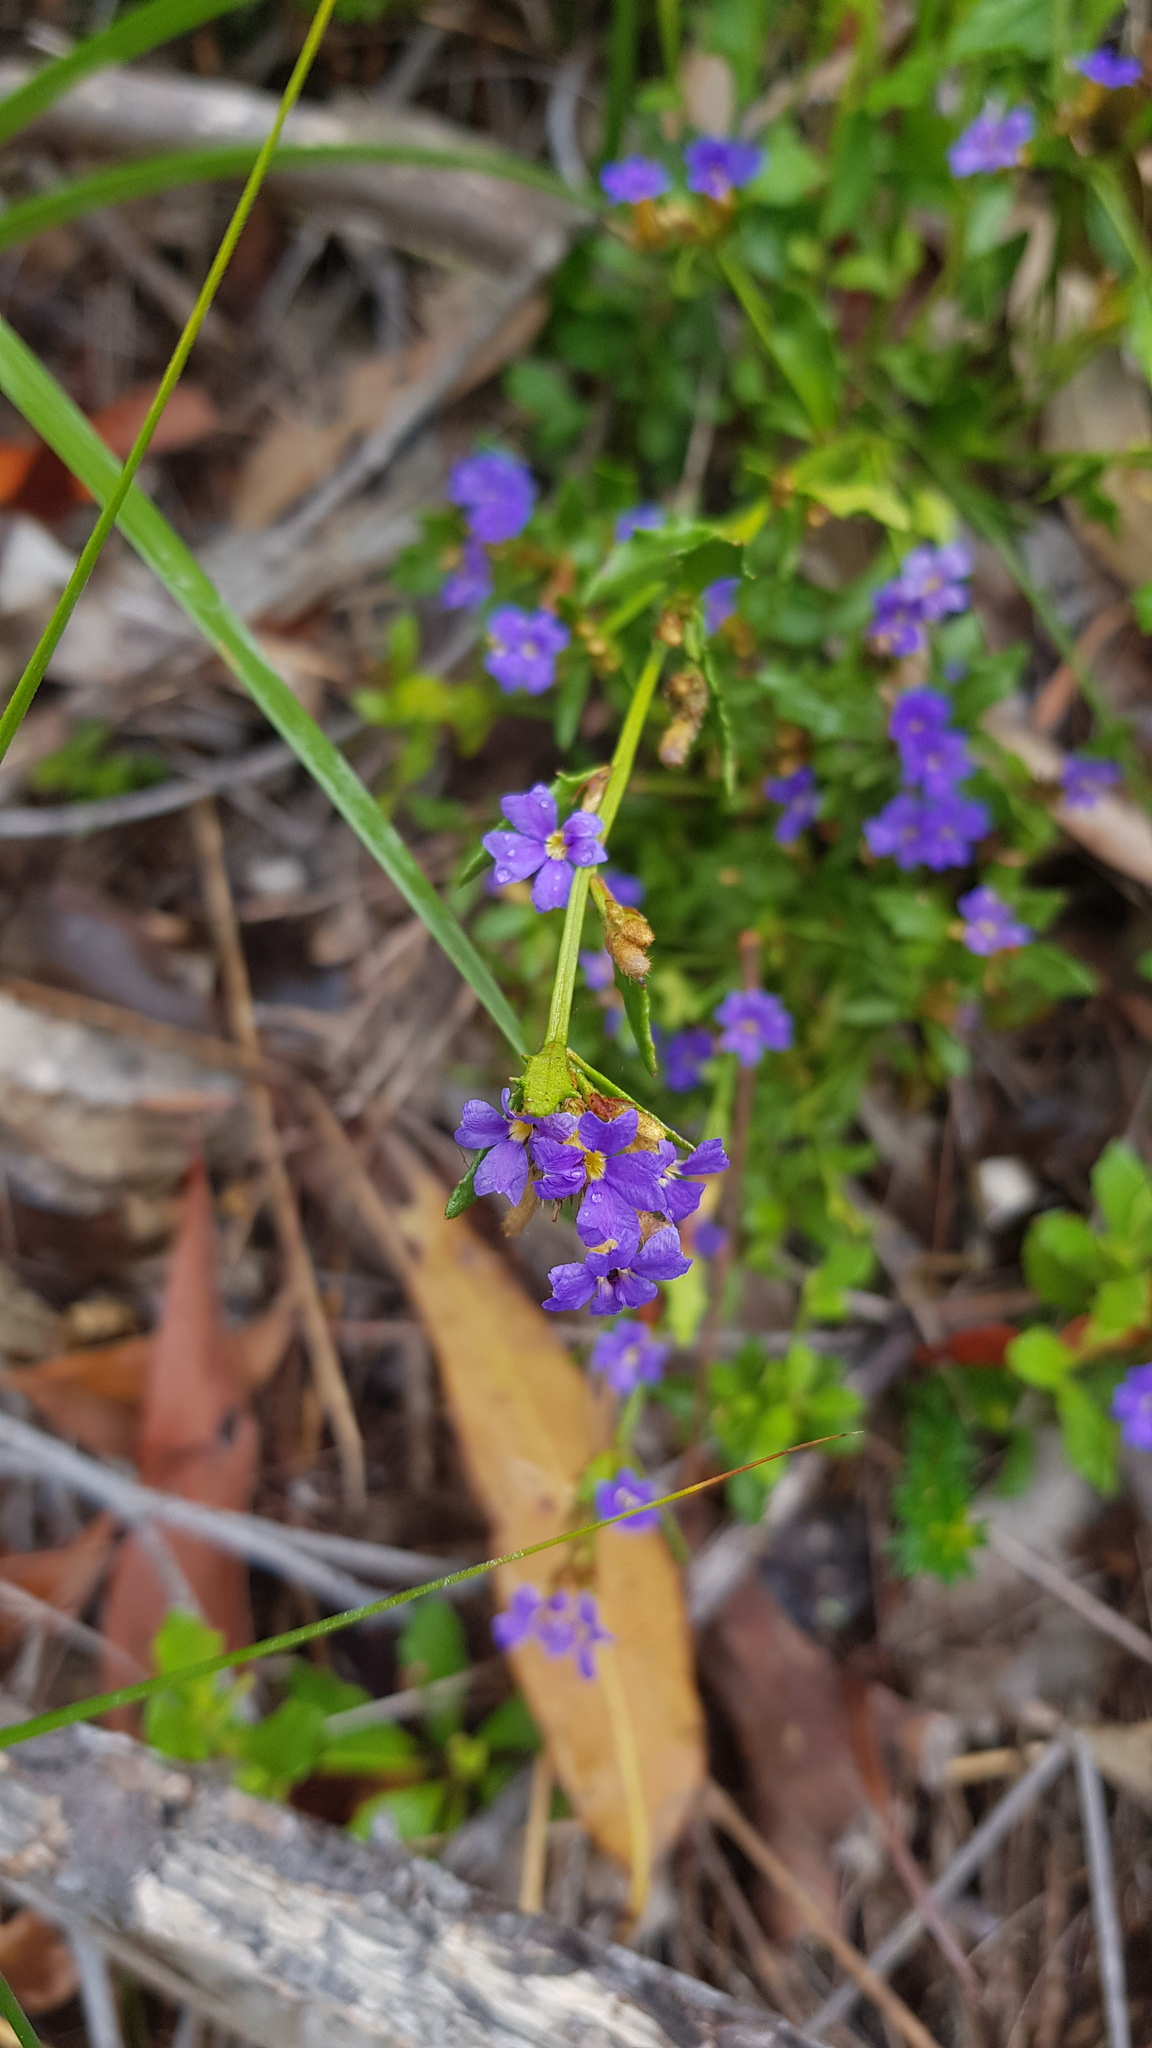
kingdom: Plantae
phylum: Tracheophyta
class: Magnoliopsida
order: Asterales
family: Goodeniaceae
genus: Dampiera
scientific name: Dampiera stricta
